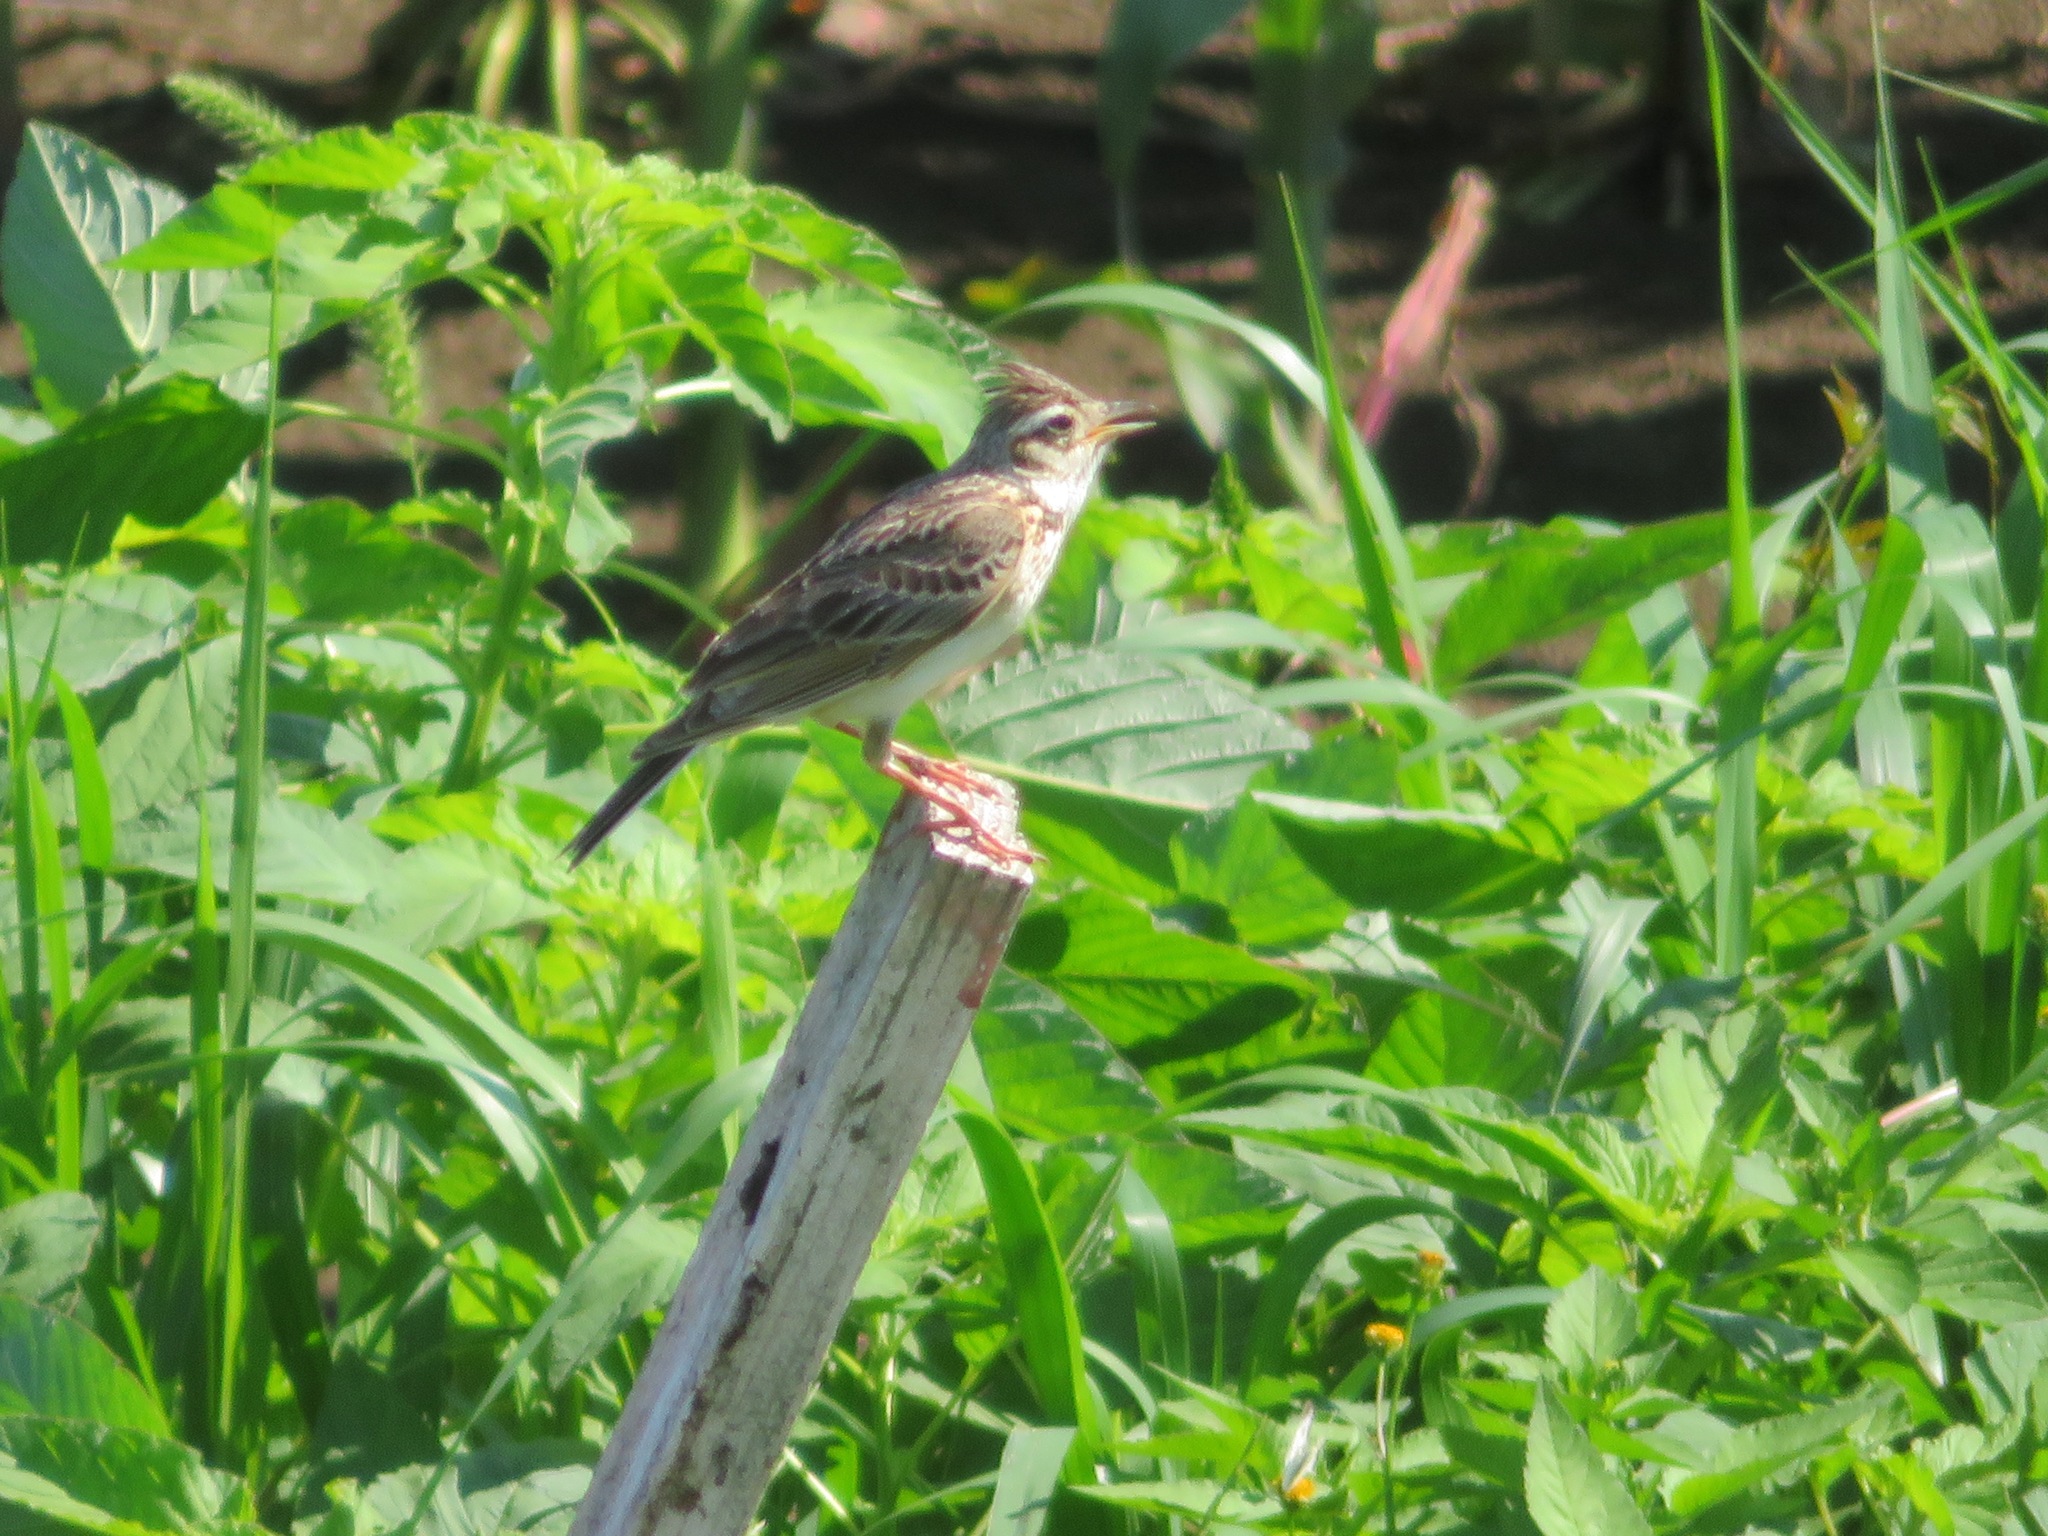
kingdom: Animalia
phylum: Chordata
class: Aves
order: Passeriformes
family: Alaudidae
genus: Alauda
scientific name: Alauda arvensis
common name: Eurasian skylark
